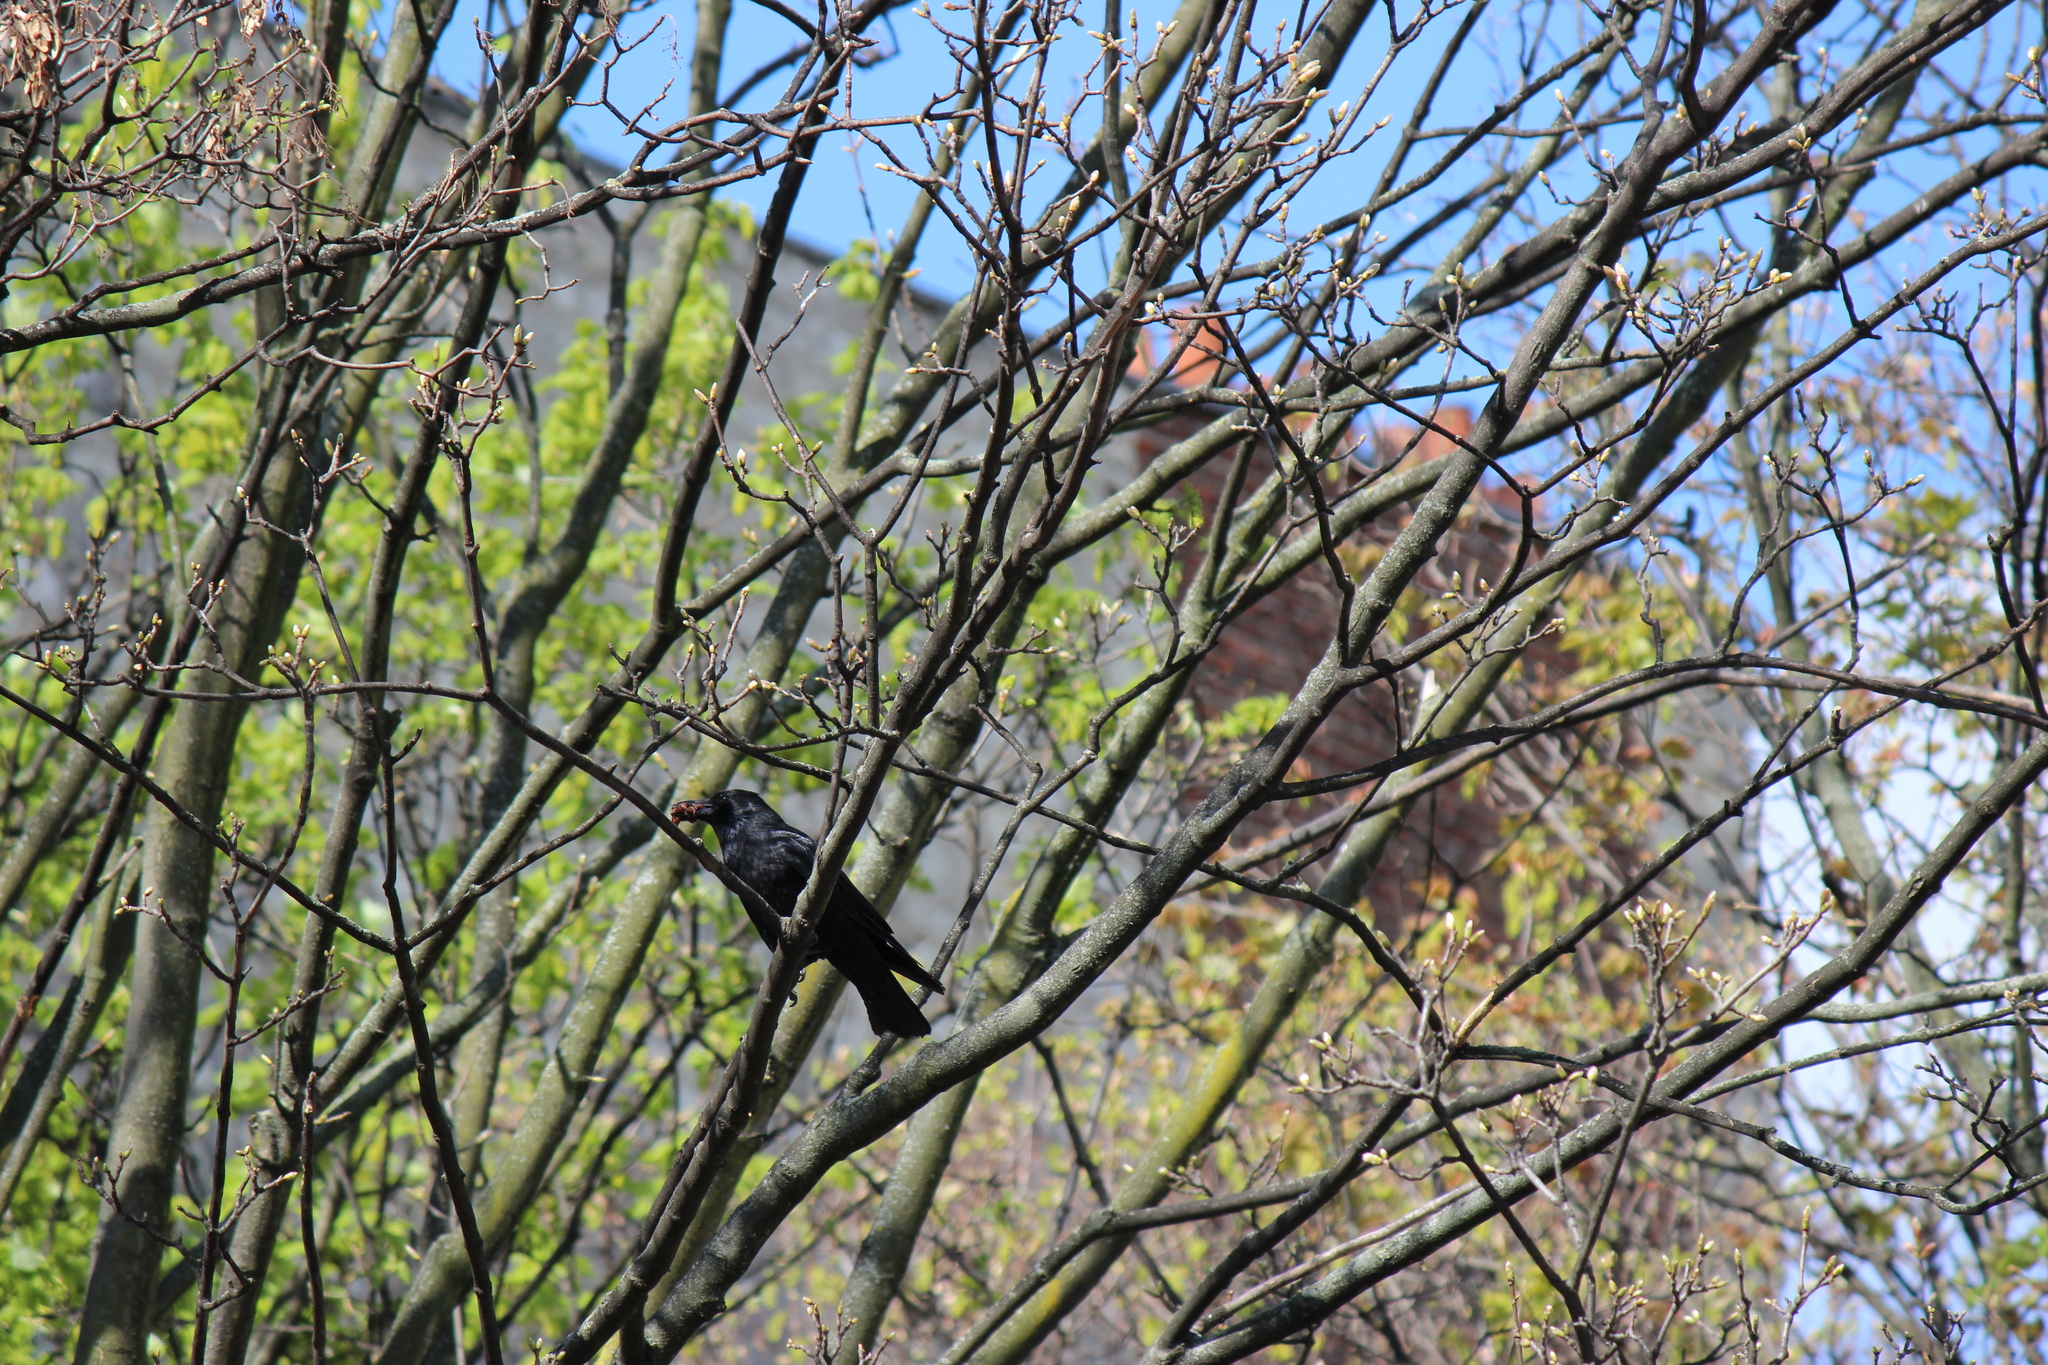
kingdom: Animalia
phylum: Chordata
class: Aves
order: Passeriformes
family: Corvidae
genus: Corvus
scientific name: Corvus corone
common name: Carrion crow
